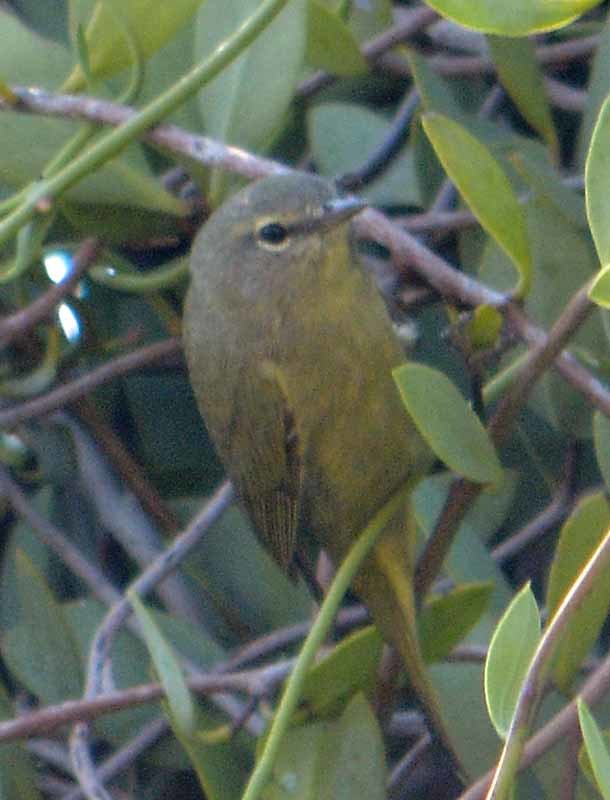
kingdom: Animalia
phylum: Chordata
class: Aves
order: Passeriformes
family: Parulidae
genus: Leiothlypis
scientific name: Leiothlypis celata
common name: Orange-crowned warbler
